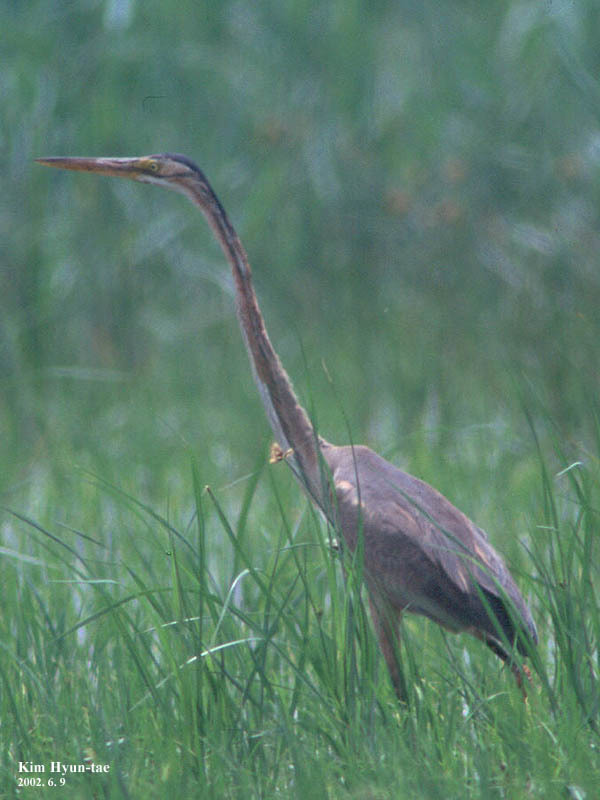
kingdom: Animalia
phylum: Chordata
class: Aves
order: Pelecaniformes
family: Ardeidae
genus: Ardea
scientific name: Ardea purpurea
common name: Purple heron
